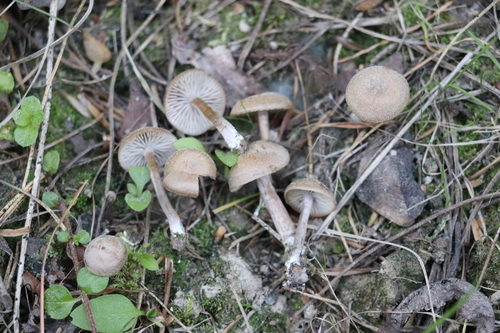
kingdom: Fungi
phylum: Basidiomycota
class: Agaricomycetes
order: Agaricales
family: Callistosporiaceae
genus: Pseudolaccaria
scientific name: Pseudolaccaria pachyphylla
